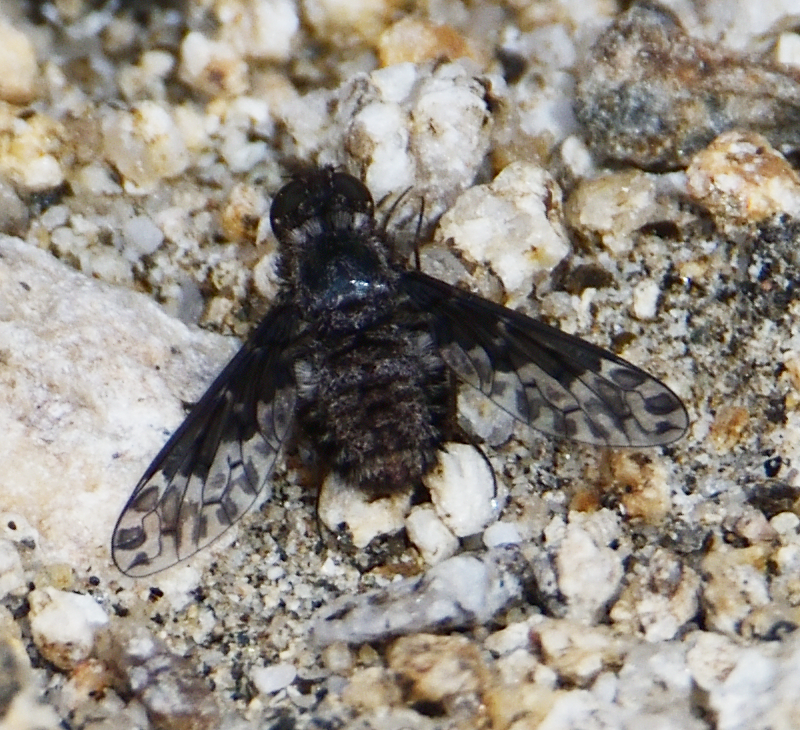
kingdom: Animalia
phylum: Arthropoda
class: Insecta
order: Diptera
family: Bombyliidae
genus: Diochanthrax
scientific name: Diochanthrax morulus
